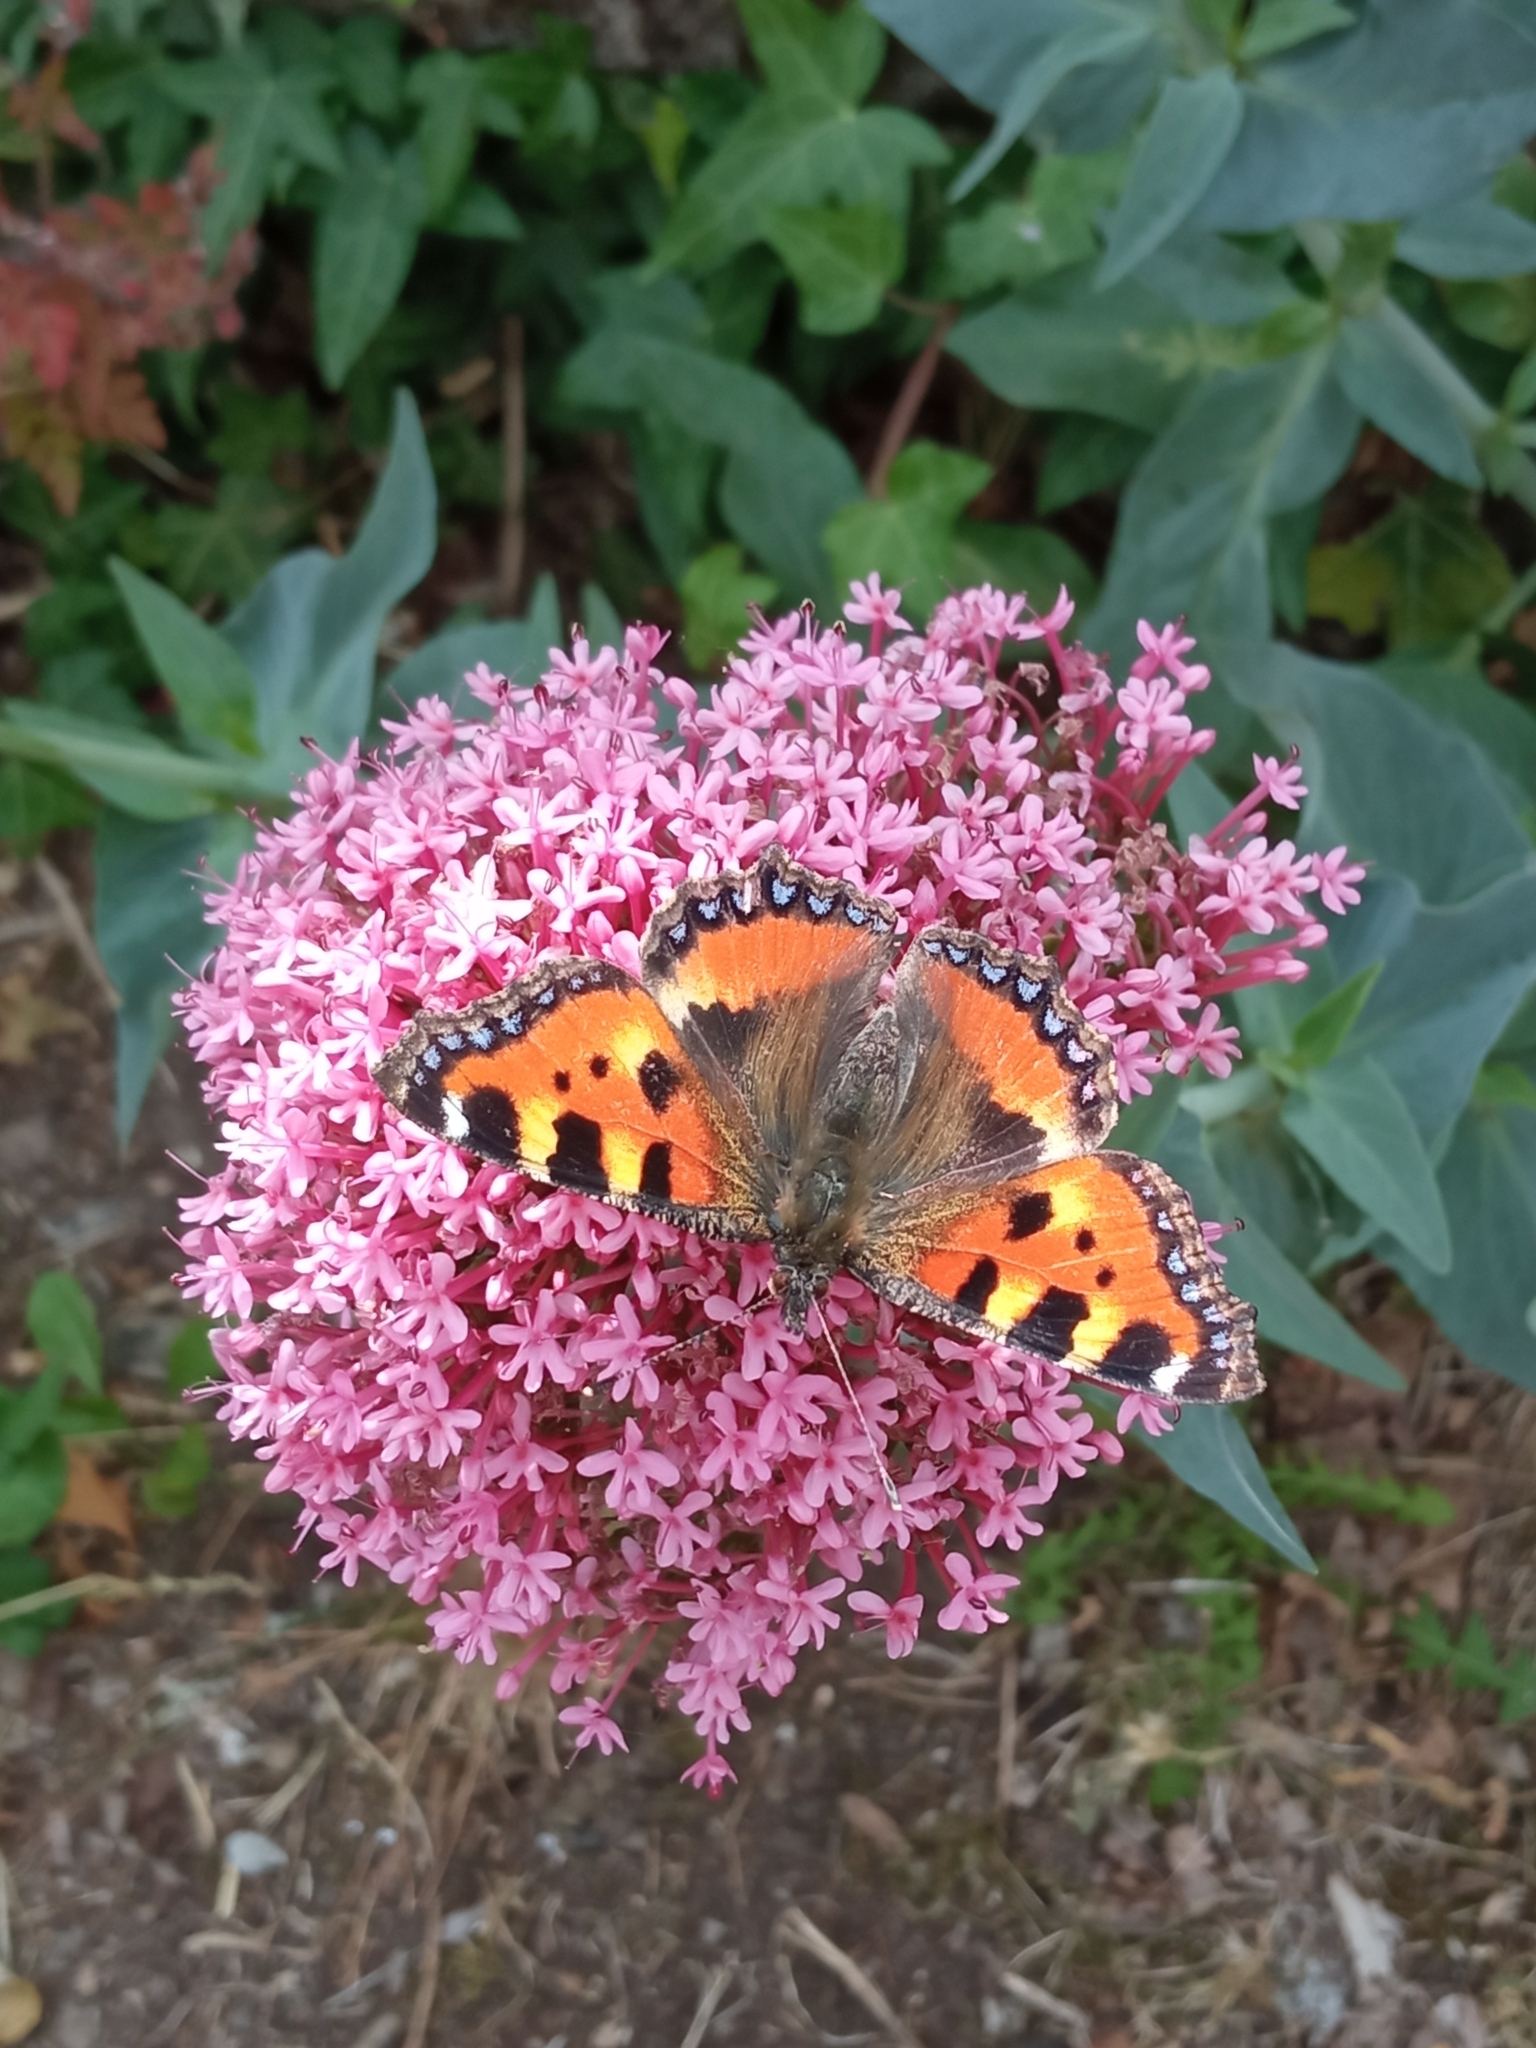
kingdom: Animalia
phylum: Arthropoda
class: Insecta
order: Lepidoptera
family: Nymphalidae
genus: Aglais
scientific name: Aglais urticae
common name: Small tortoiseshell
